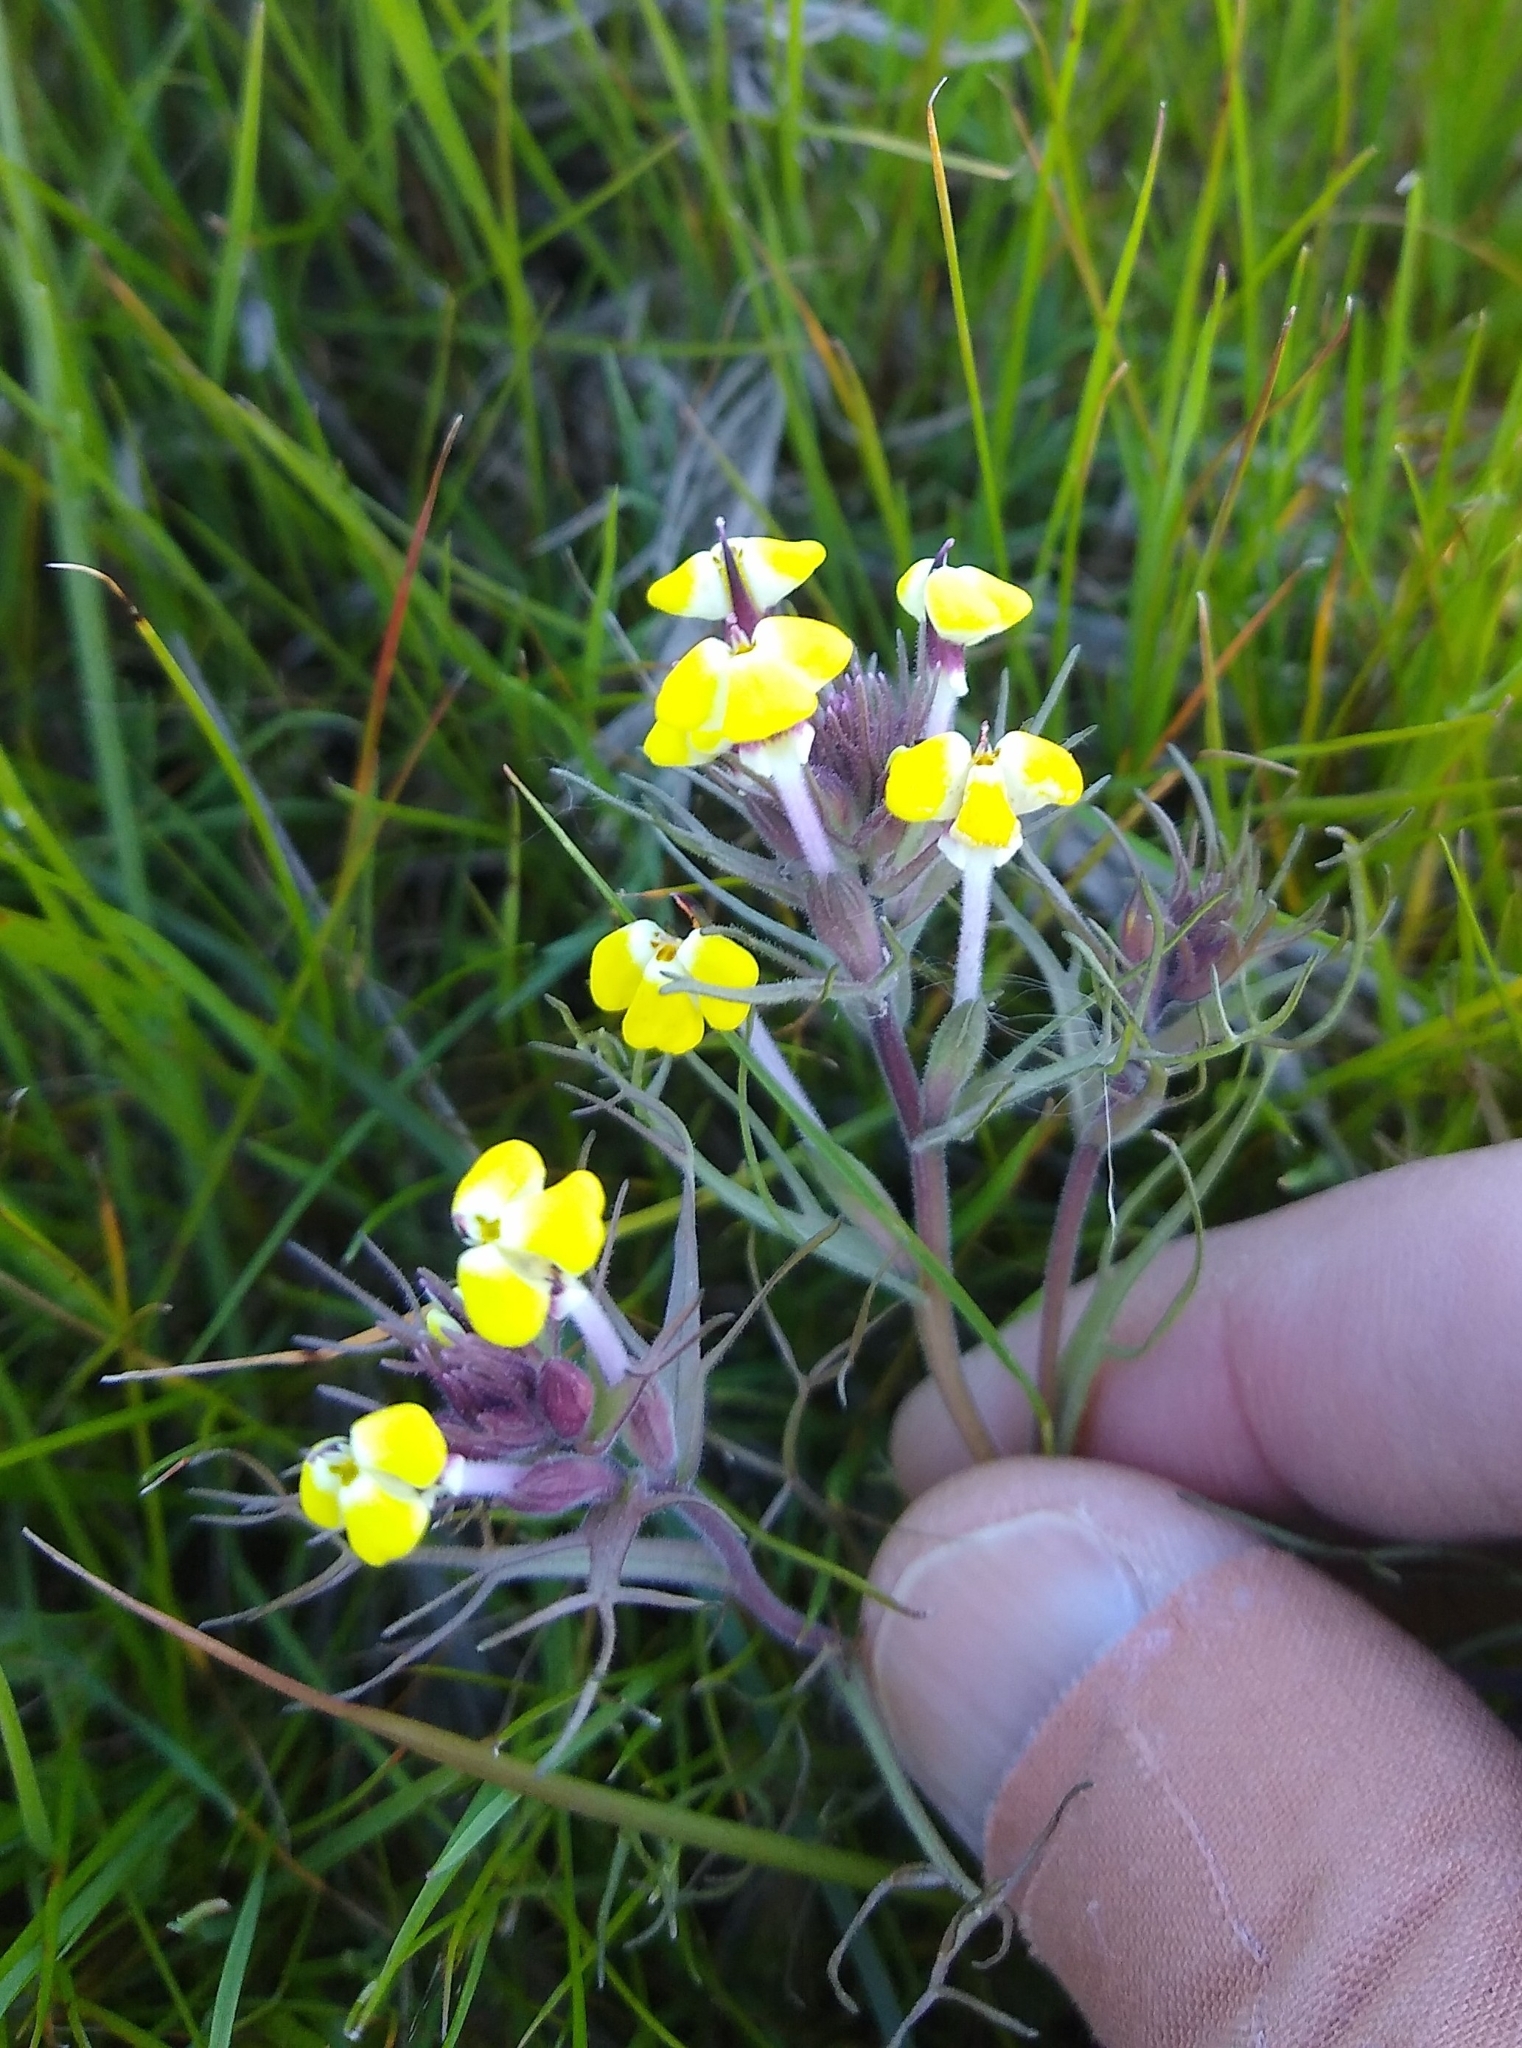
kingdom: Plantae
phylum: Tracheophyta
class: Magnoliopsida
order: Lamiales
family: Orobanchaceae
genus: Triphysaria
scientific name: Triphysaria eriantha
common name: Johnny-tuck
